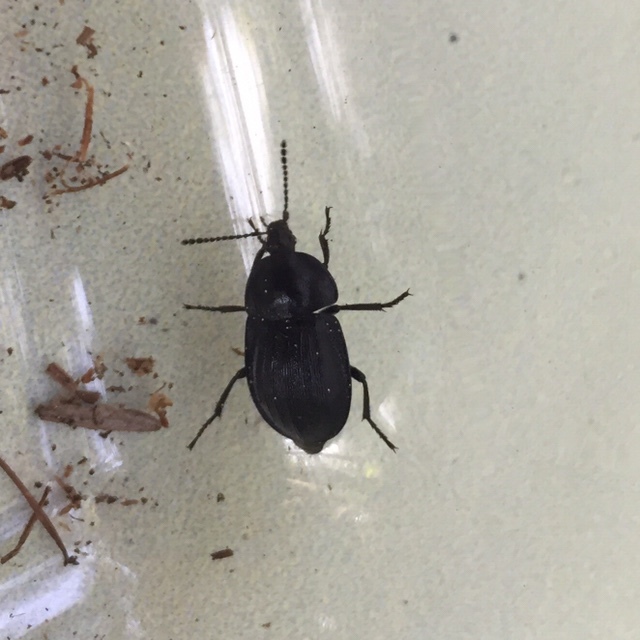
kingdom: Animalia
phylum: Arthropoda
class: Insecta
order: Coleoptera
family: Staphylinidae
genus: Silpha
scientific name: Silpha atrata
